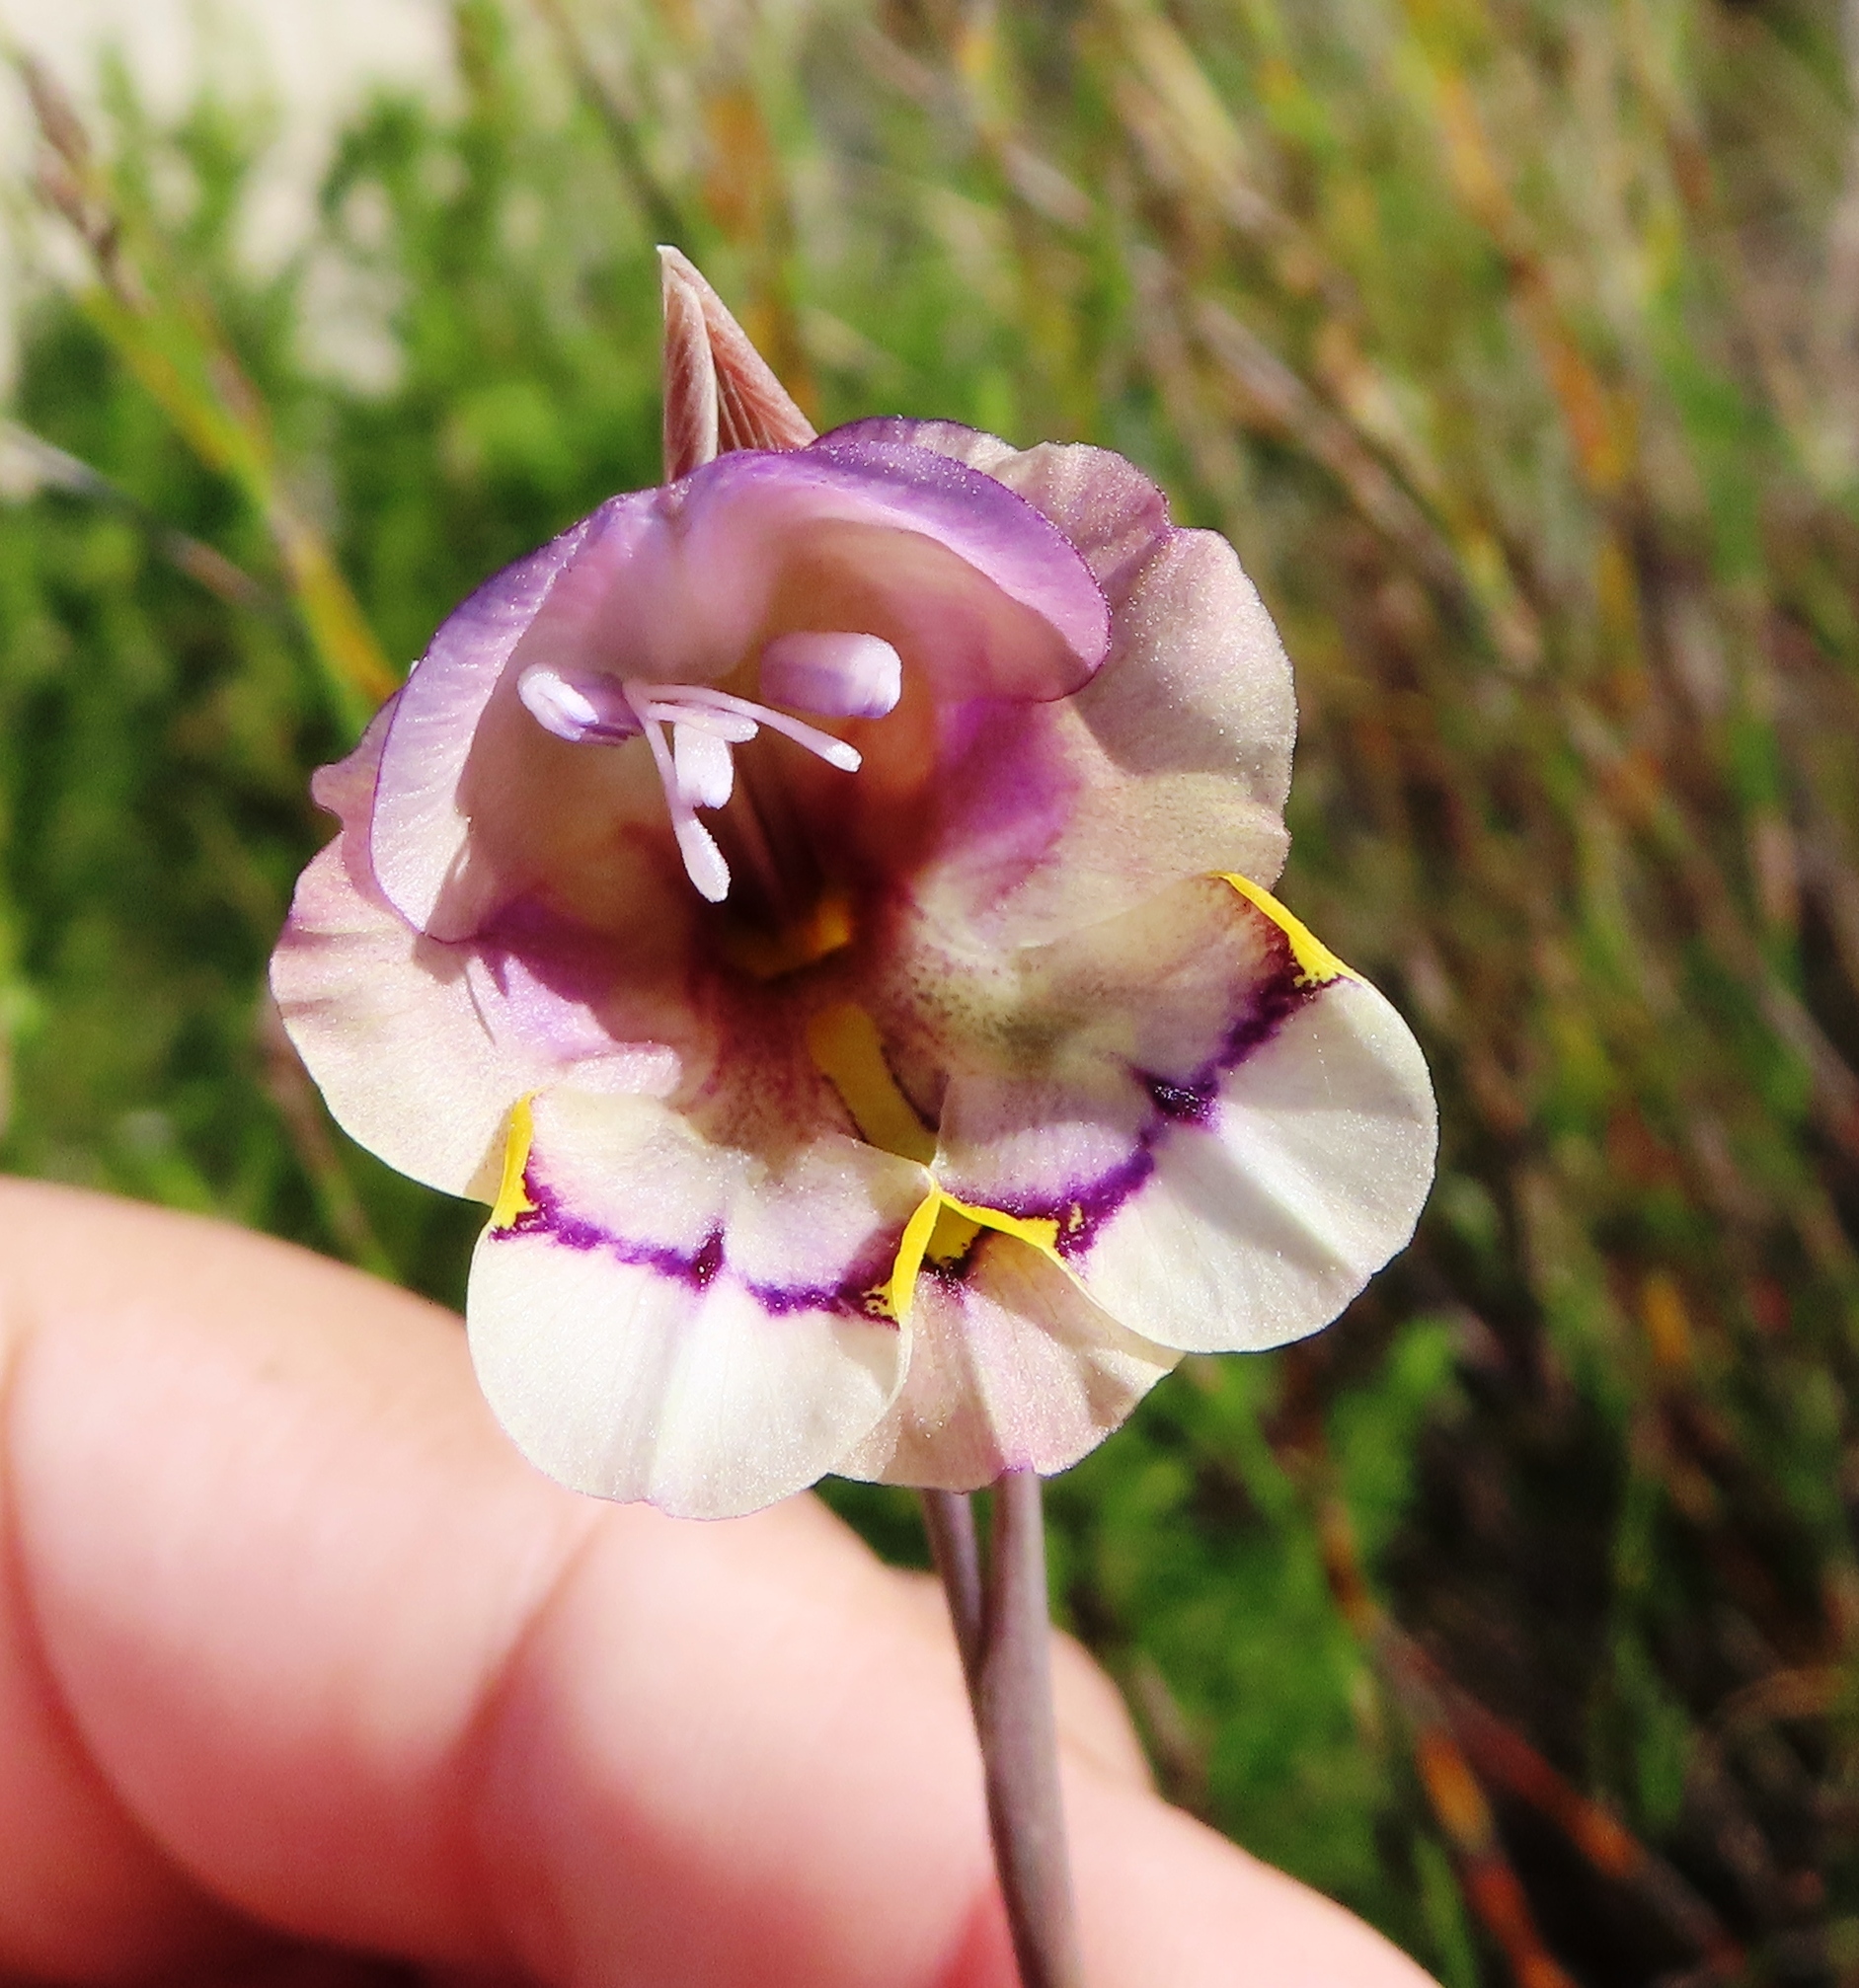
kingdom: Plantae
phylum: Tracheophyta
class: Liliopsida
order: Asparagales
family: Iridaceae
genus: Gladiolus
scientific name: Gladiolus patersoniae
